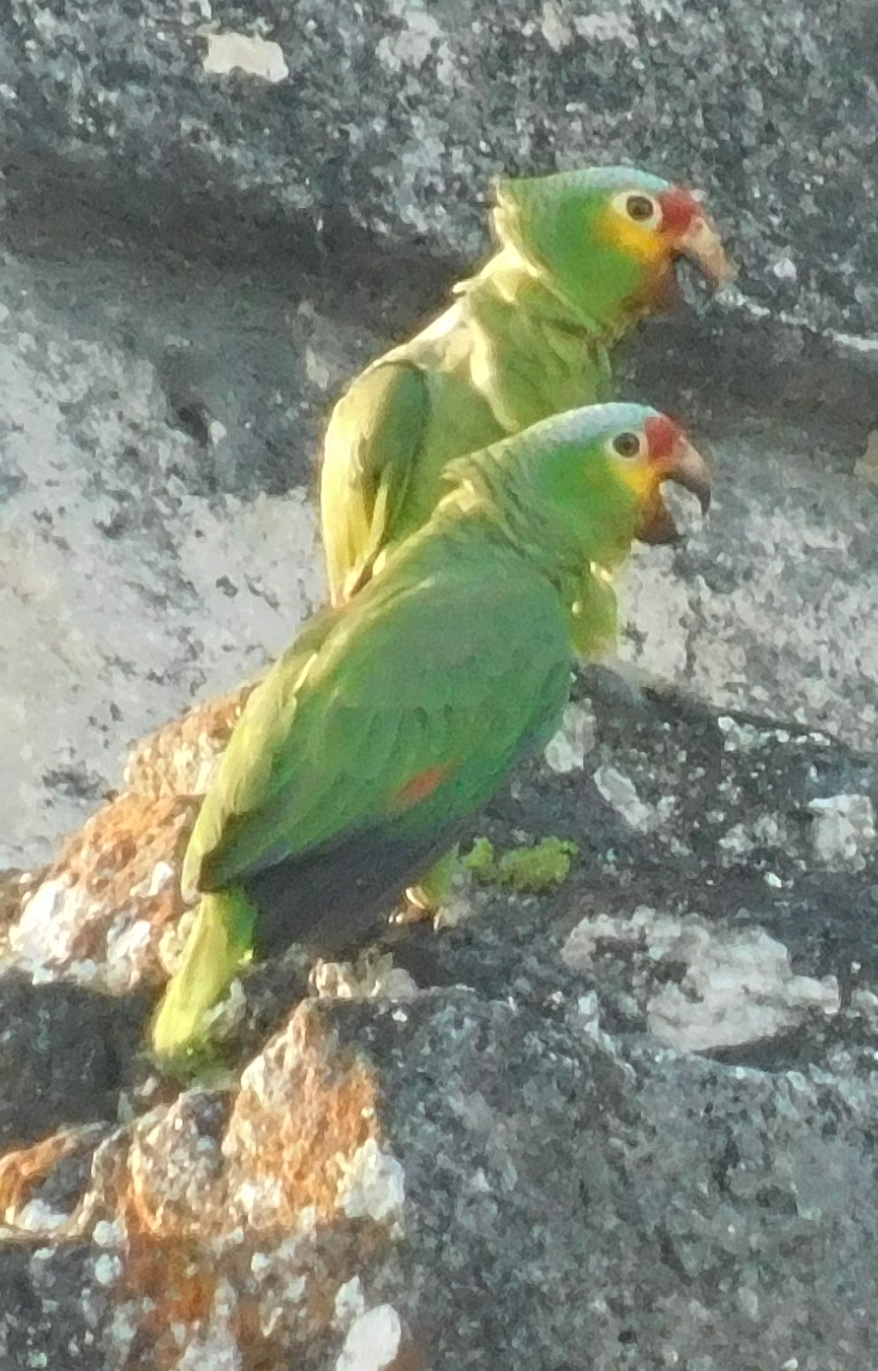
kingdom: Animalia
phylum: Chordata
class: Aves
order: Psittaciformes
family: Psittacidae
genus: Amazona
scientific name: Amazona autumnalis
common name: Red-lored amazon
